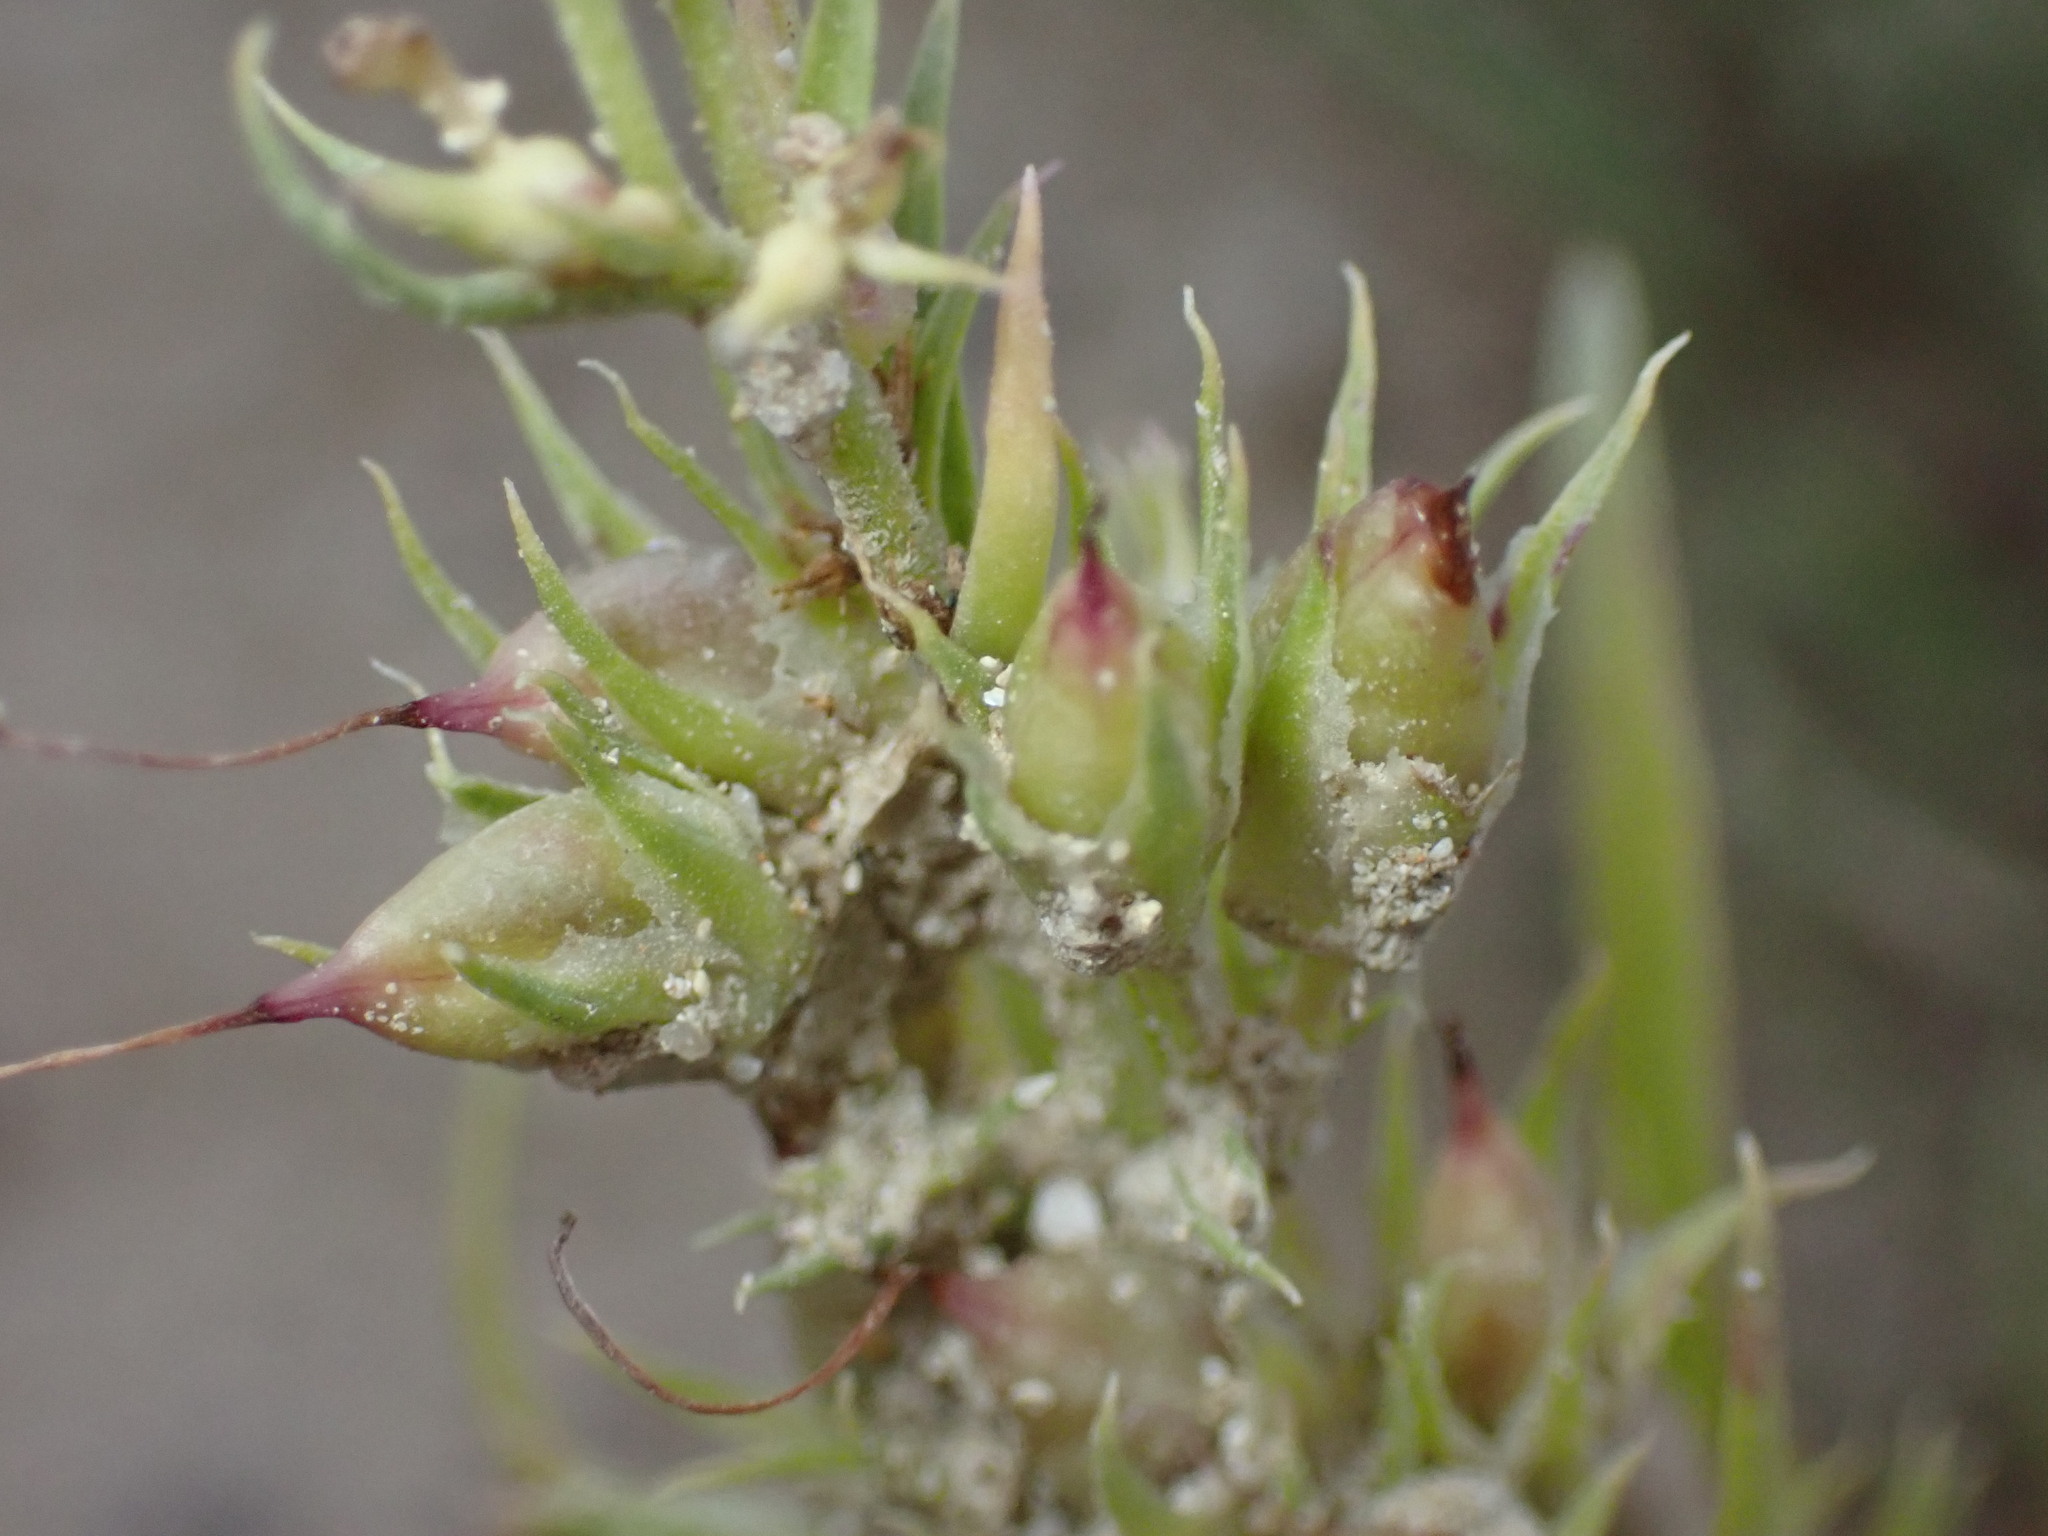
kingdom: Plantae
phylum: Tracheophyta
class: Magnoliopsida
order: Lamiales
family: Plantaginaceae
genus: Penstemon
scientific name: Penstemon penlandii
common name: Penland's beardtongue
